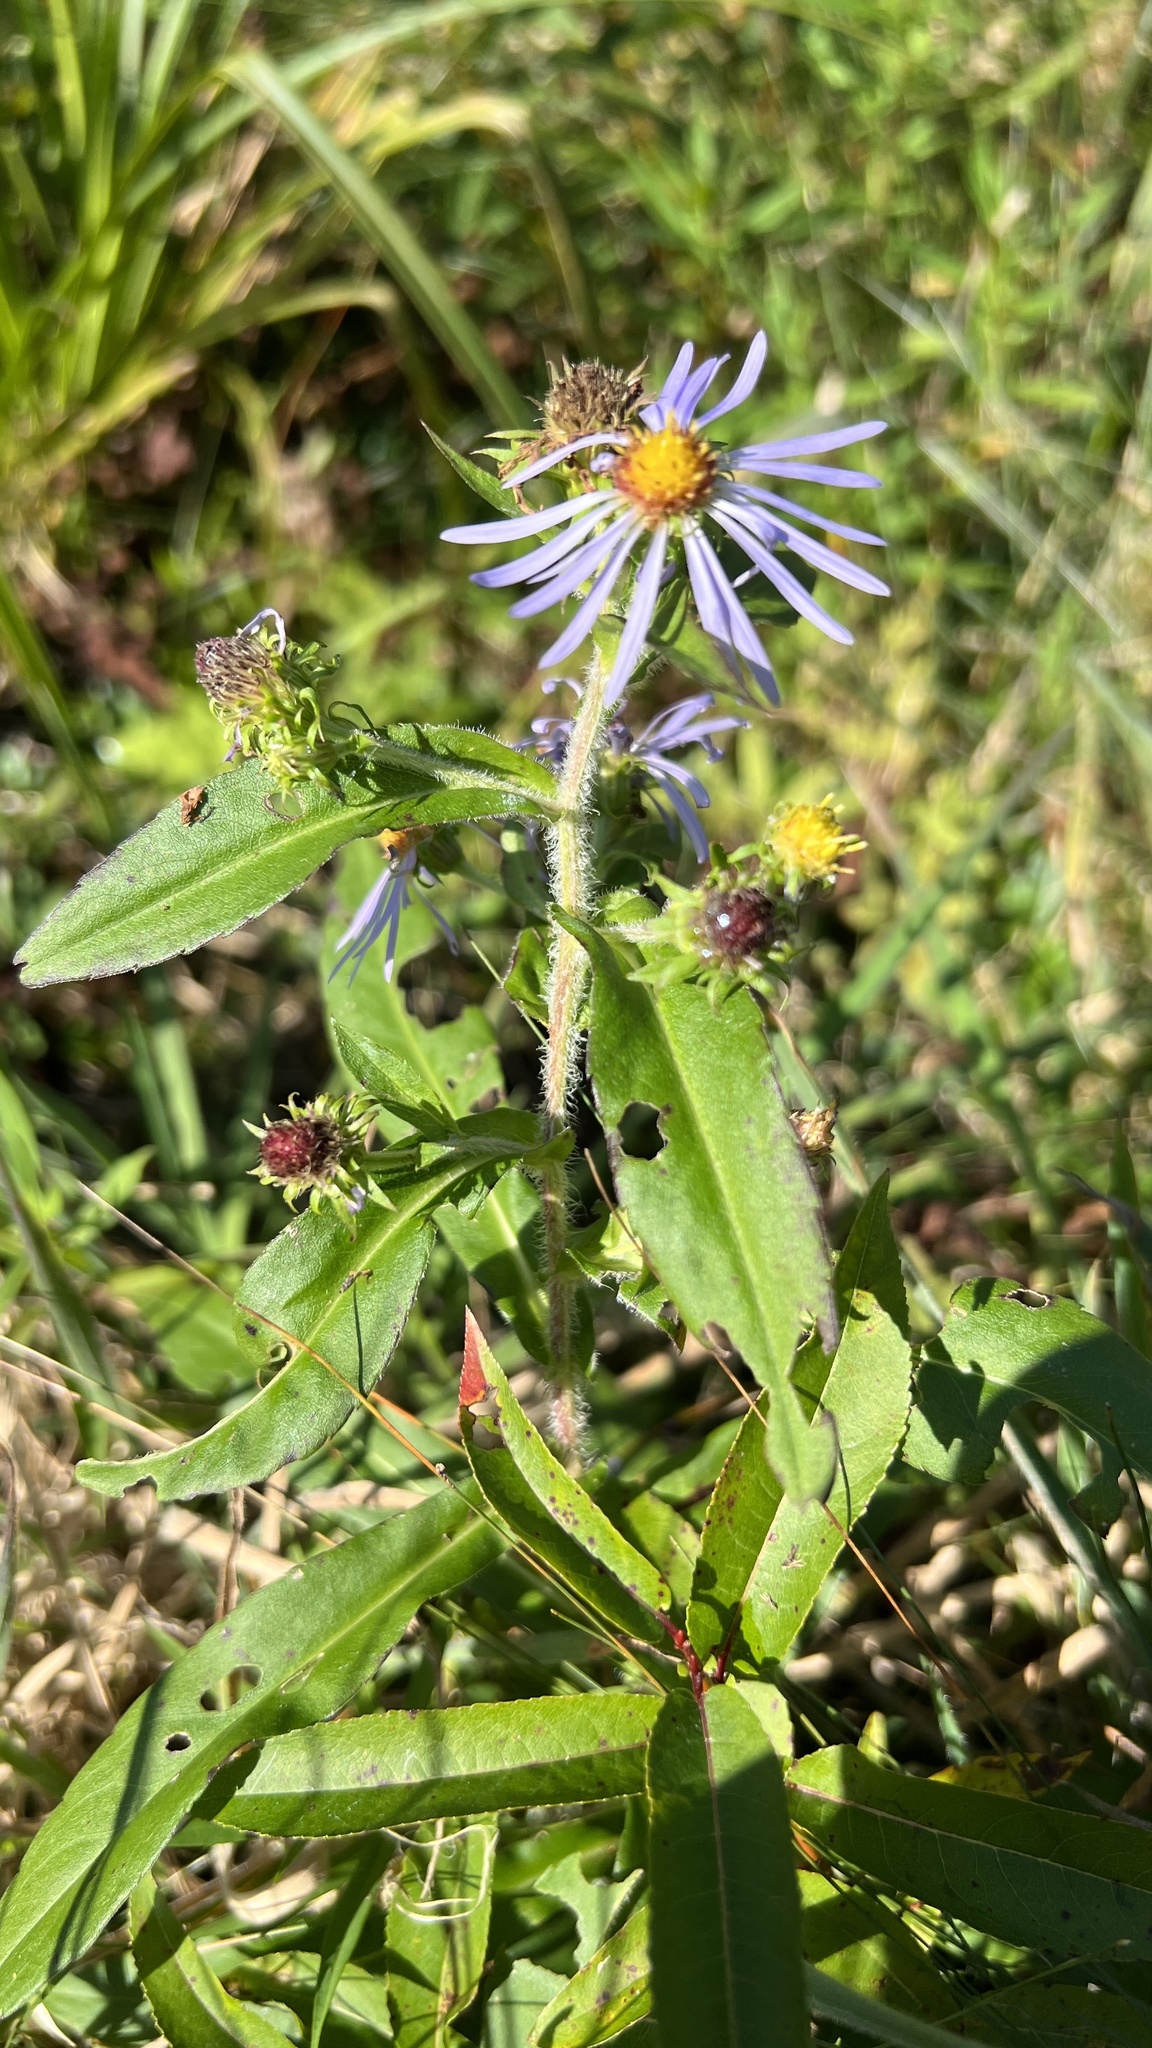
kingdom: Plantae
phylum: Tracheophyta
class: Magnoliopsida
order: Asterales
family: Asteraceae
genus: Symphyotrichum
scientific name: Symphyotrichum puniceum
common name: Bog aster
